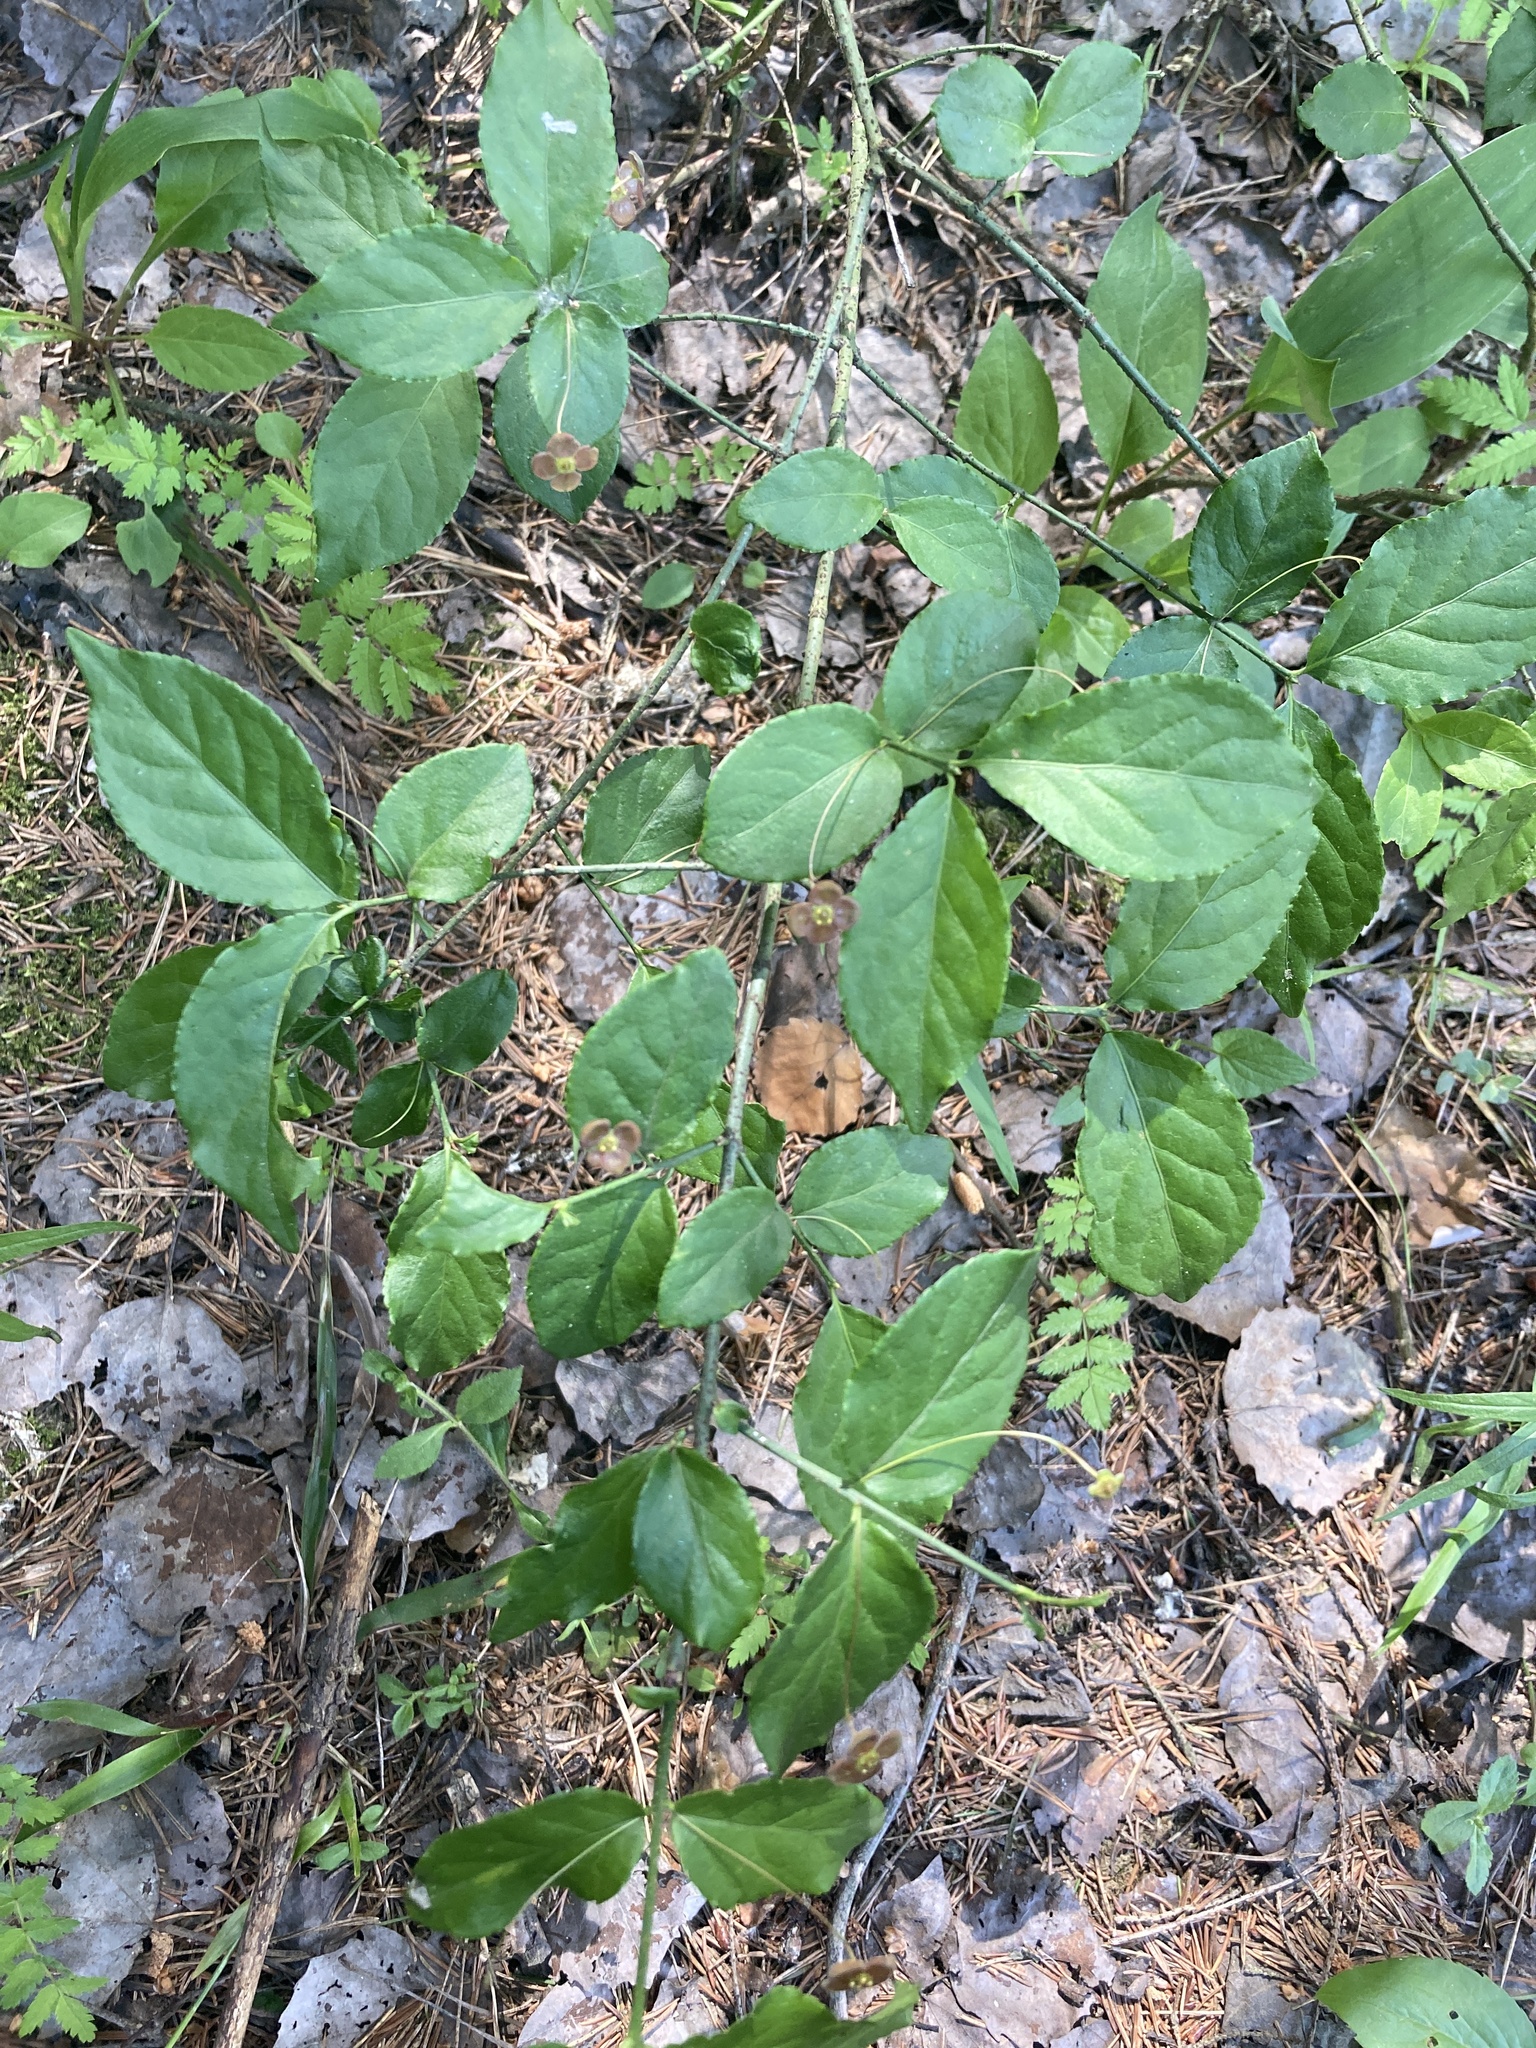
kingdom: Plantae
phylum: Tracheophyta
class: Magnoliopsida
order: Celastrales
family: Celastraceae
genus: Euonymus
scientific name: Euonymus verrucosus
